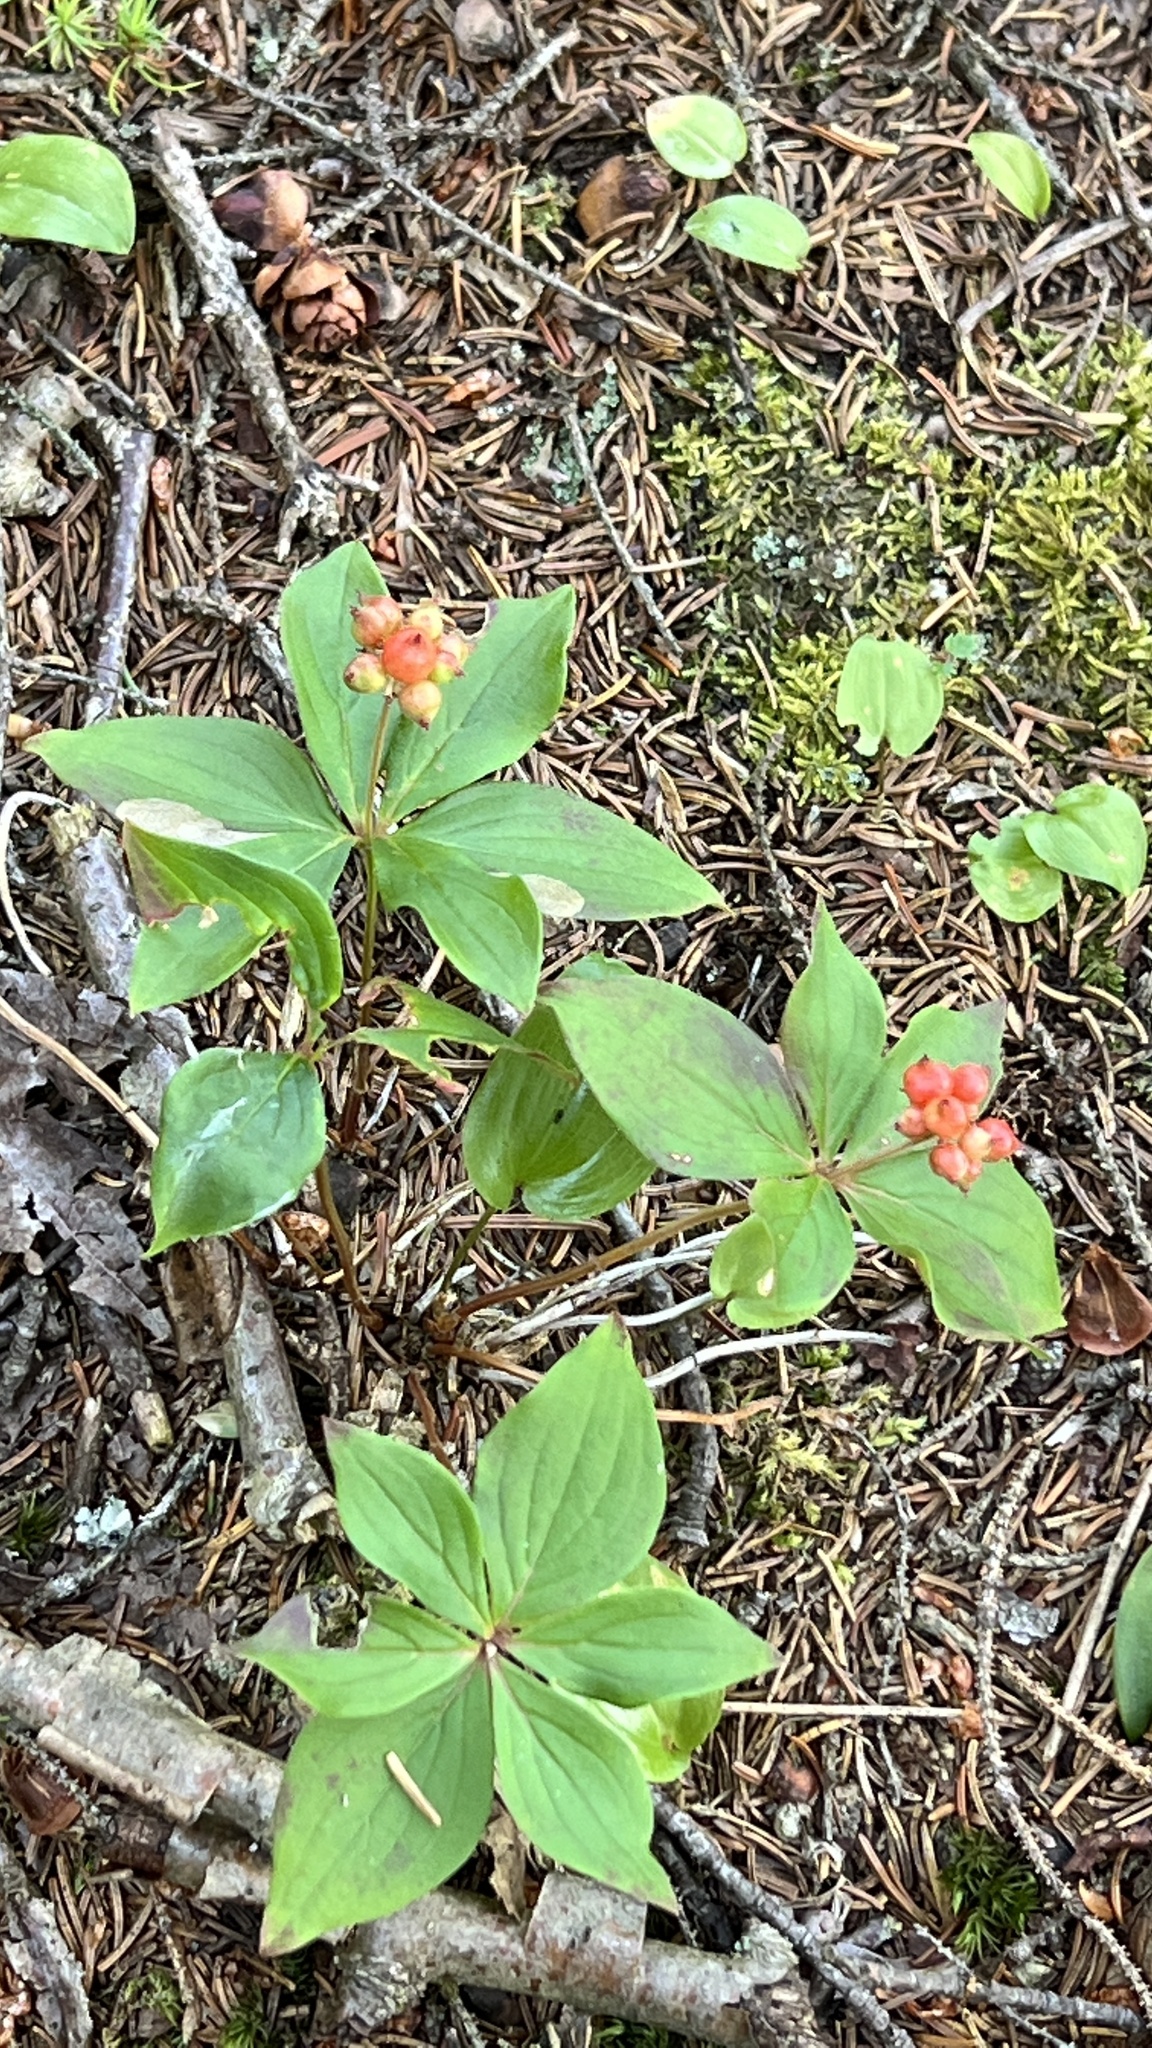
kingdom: Plantae
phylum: Tracheophyta
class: Magnoliopsida
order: Cornales
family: Cornaceae
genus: Cornus
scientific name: Cornus canadensis
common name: Creeping dogwood
